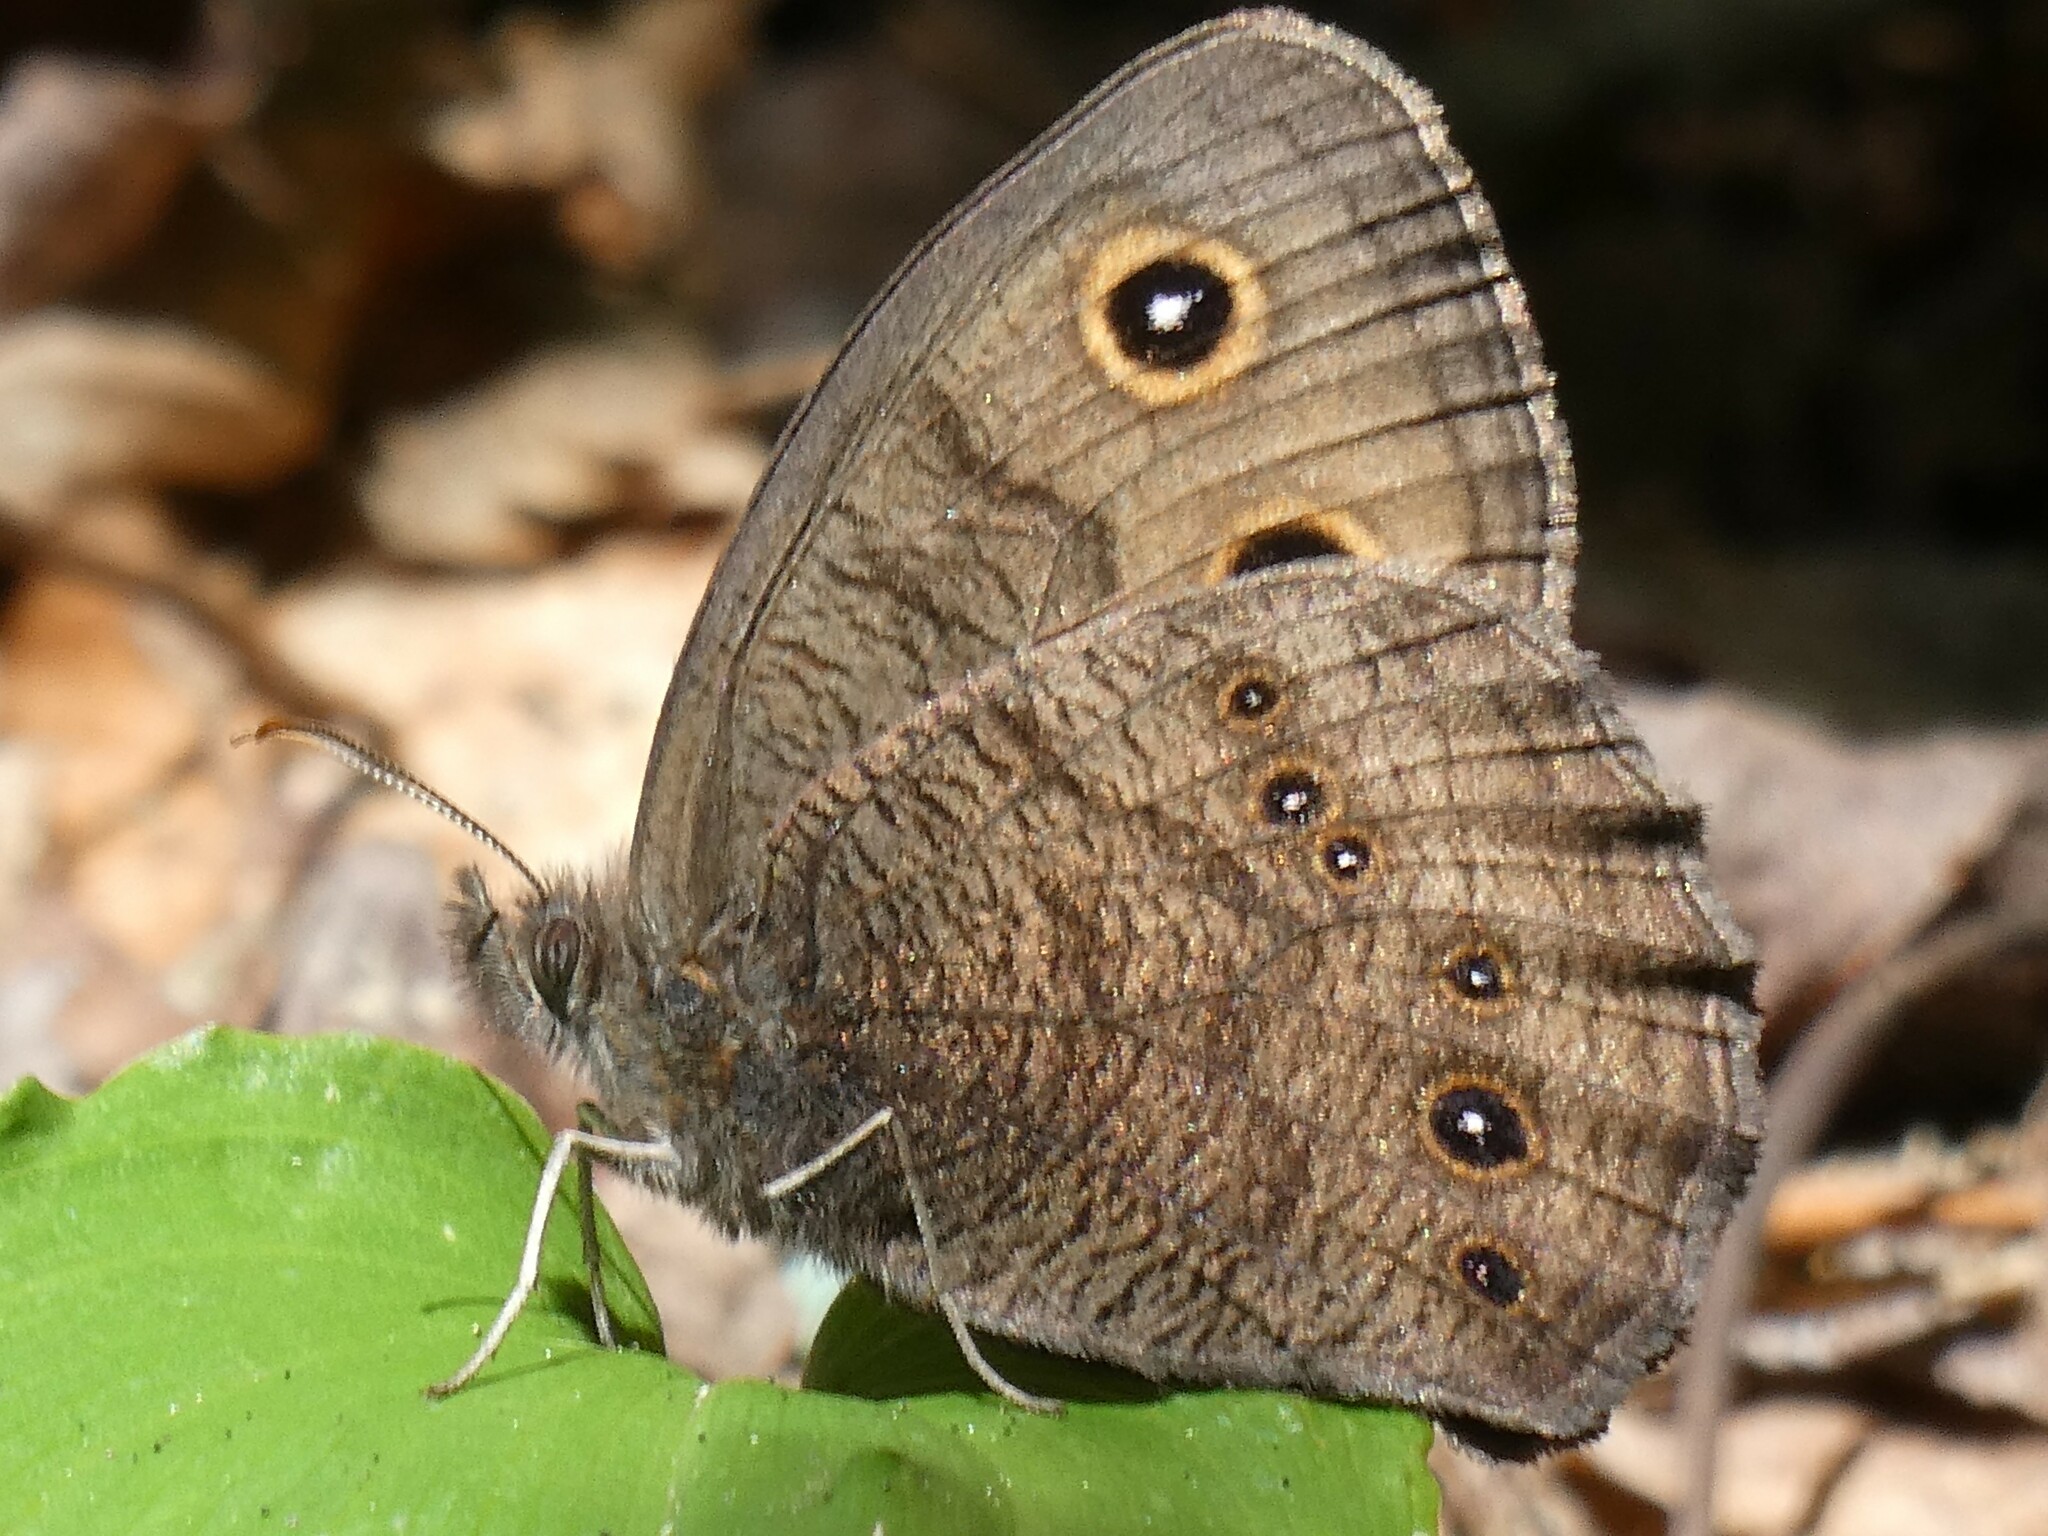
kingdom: Animalia
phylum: Arthropoda
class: Insecta
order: Lepidoptera
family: Nymphalidae
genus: Cercyonis
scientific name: Cercyonis pegala
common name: Common wood-nymph
